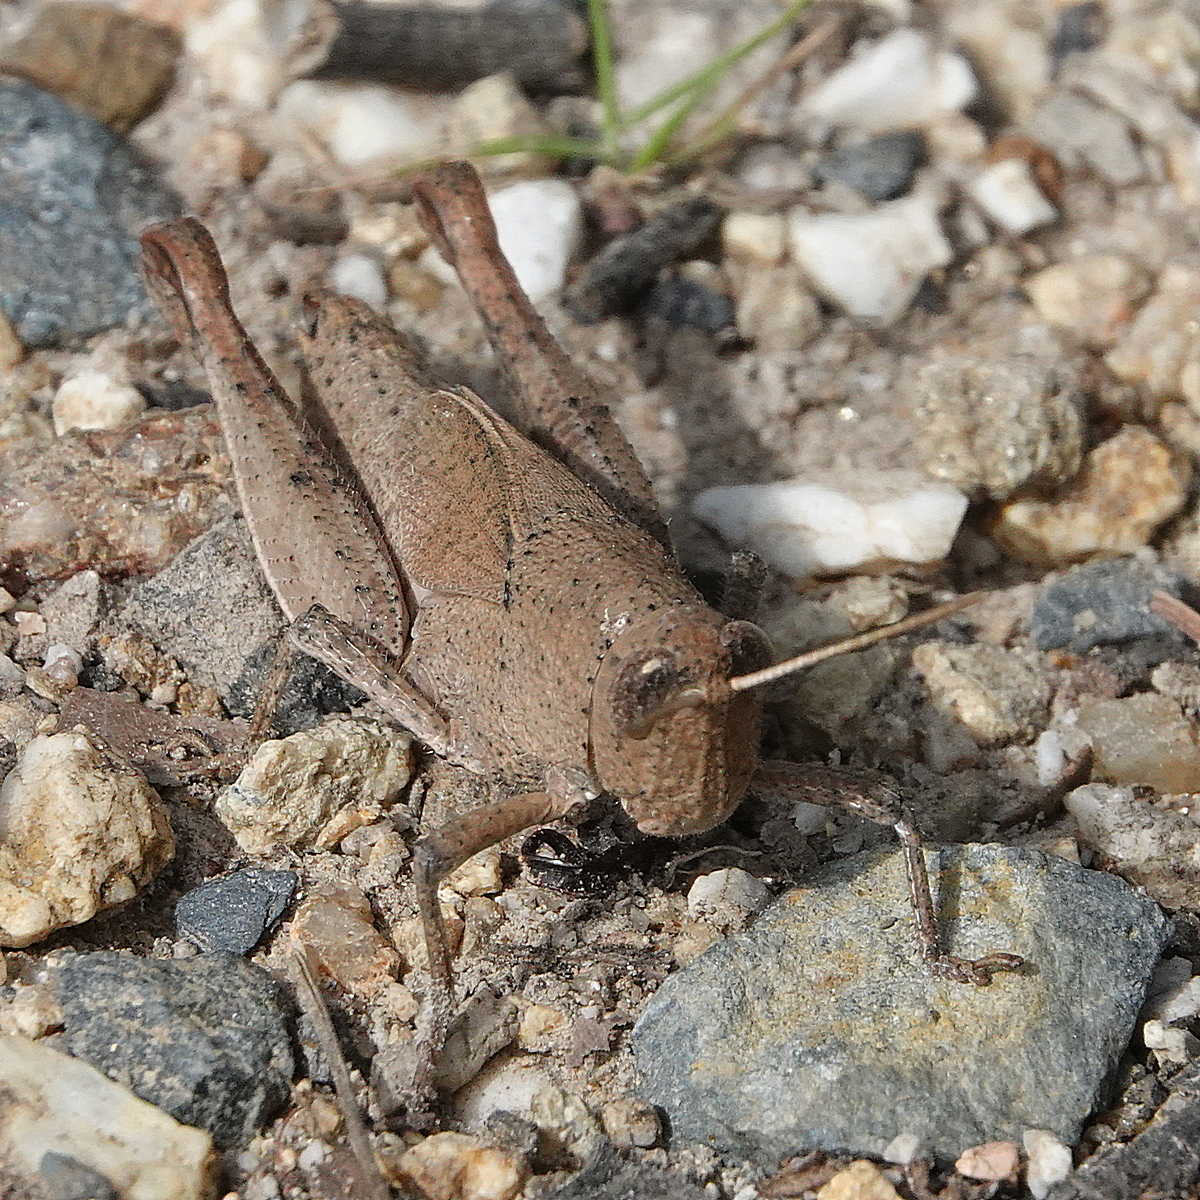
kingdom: Animalia
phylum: Arthropoda
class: Insecta
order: Orthoptera
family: Acrididae
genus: Rhitzala
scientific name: Rhitzala modesta
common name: Short-winged heath grasshopper
